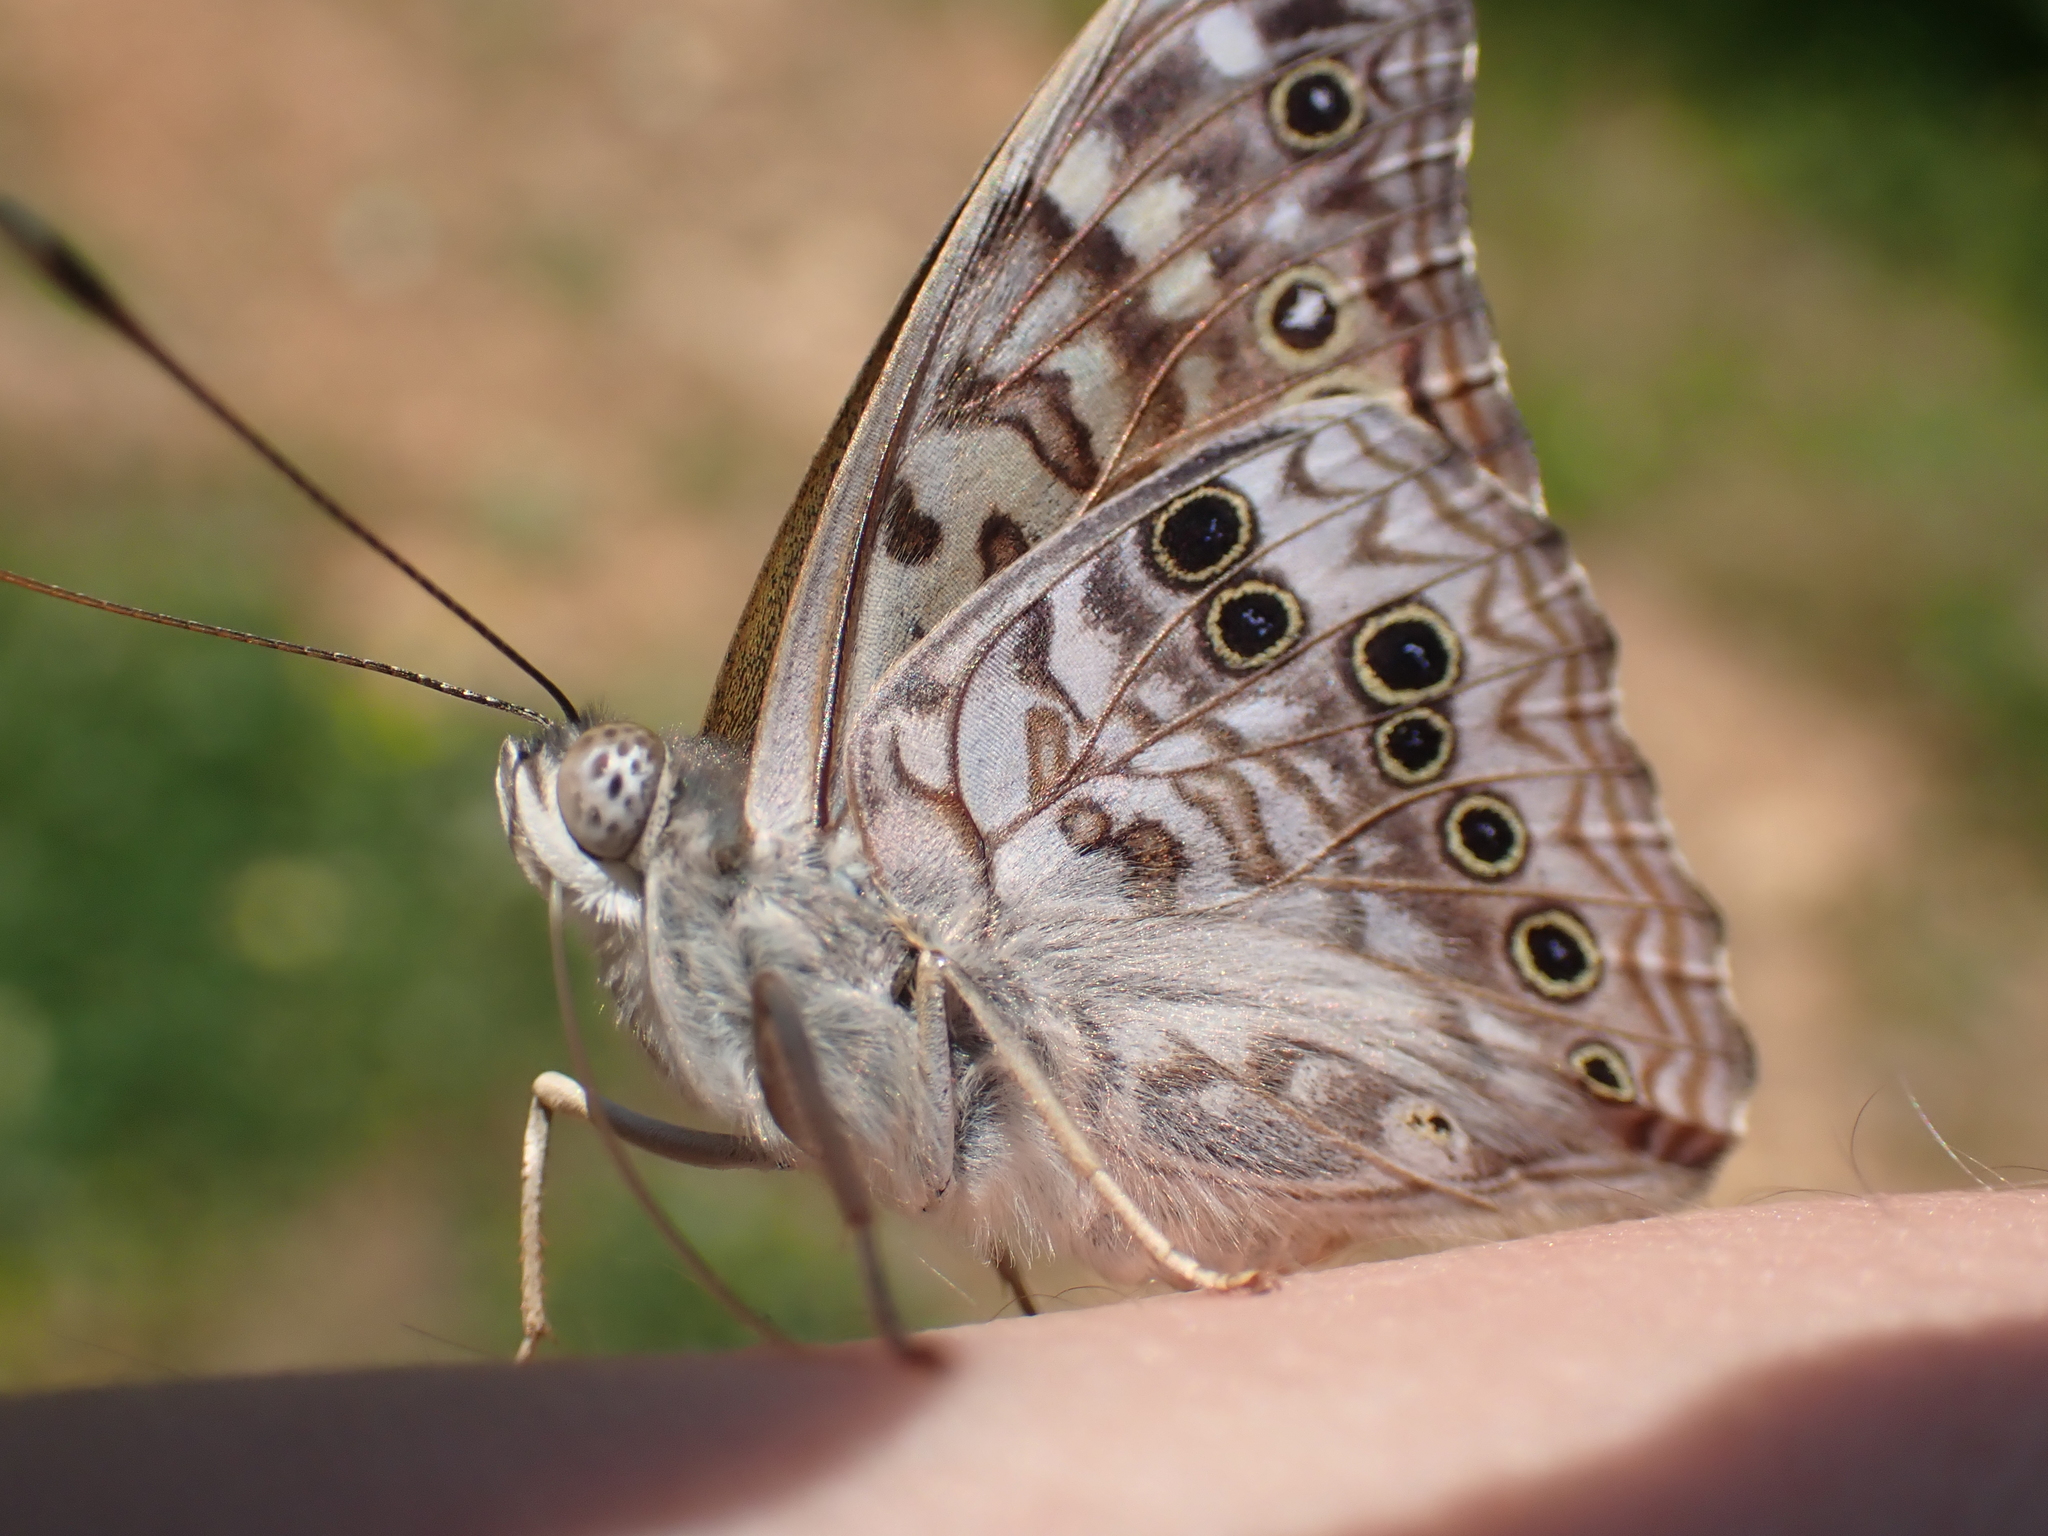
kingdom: Animalia
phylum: Arthropoda
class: Insecta
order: Lepidoptera
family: Nymphalidae
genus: Asterocampa
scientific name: Asterocampa celtis
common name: Hackberry emperor
